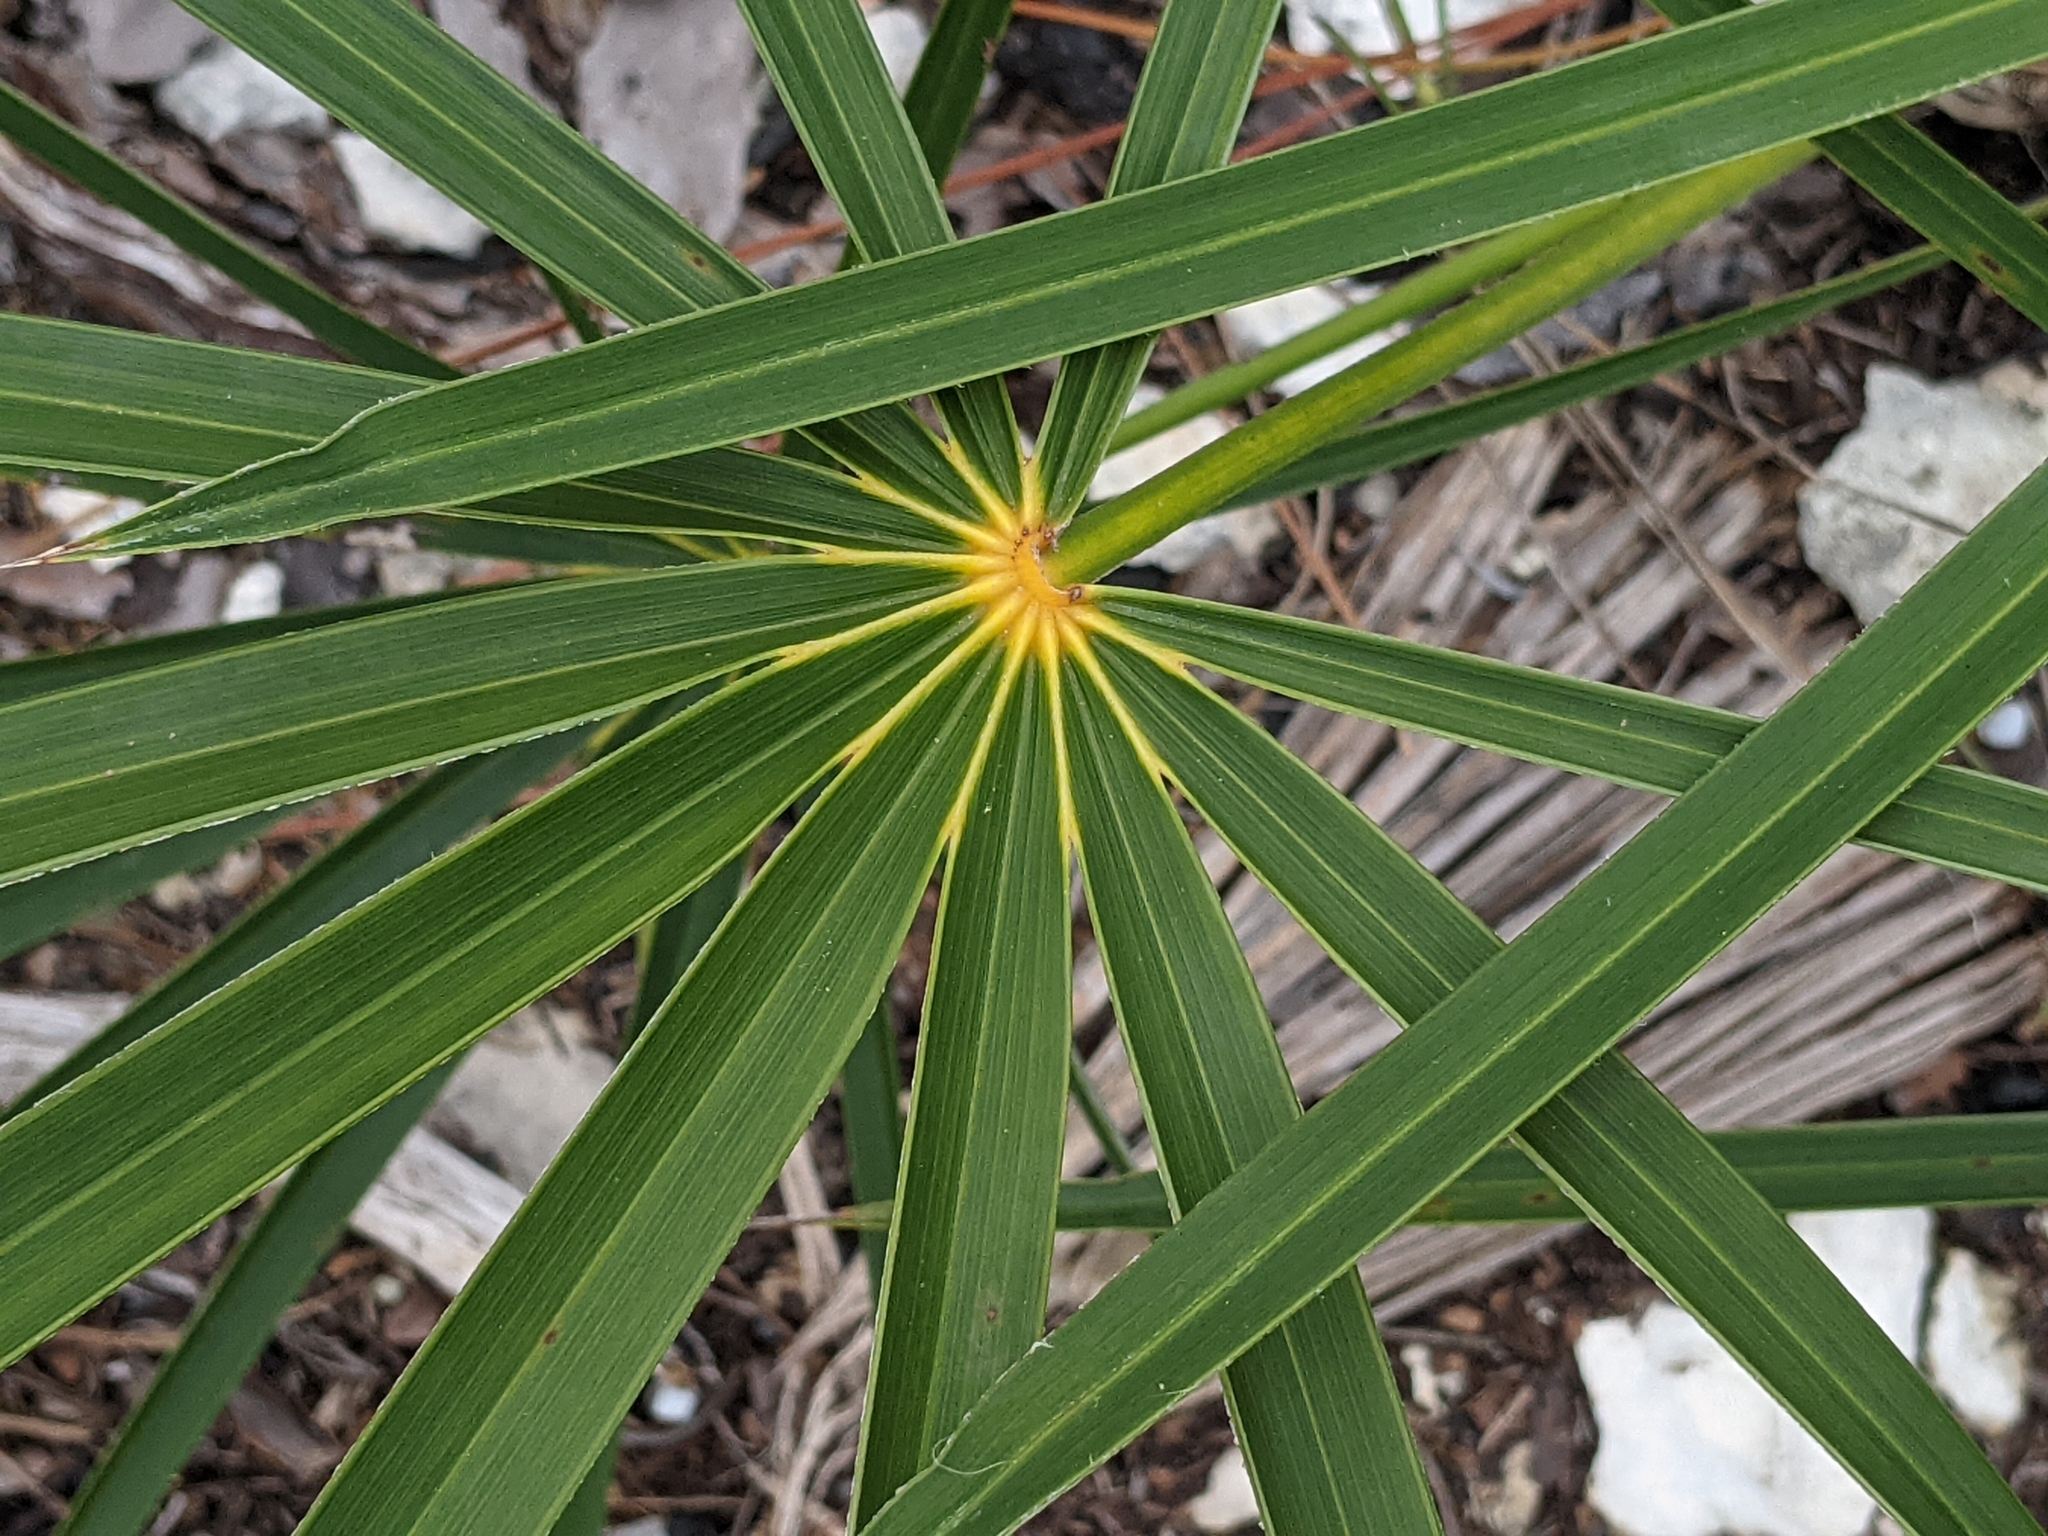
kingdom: Plantae
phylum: Tracheophyta
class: Liliopsida
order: Arecales
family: Arecaceae
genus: Coccothrinax
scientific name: Coccothrinax argentata
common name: Florida silver palm
